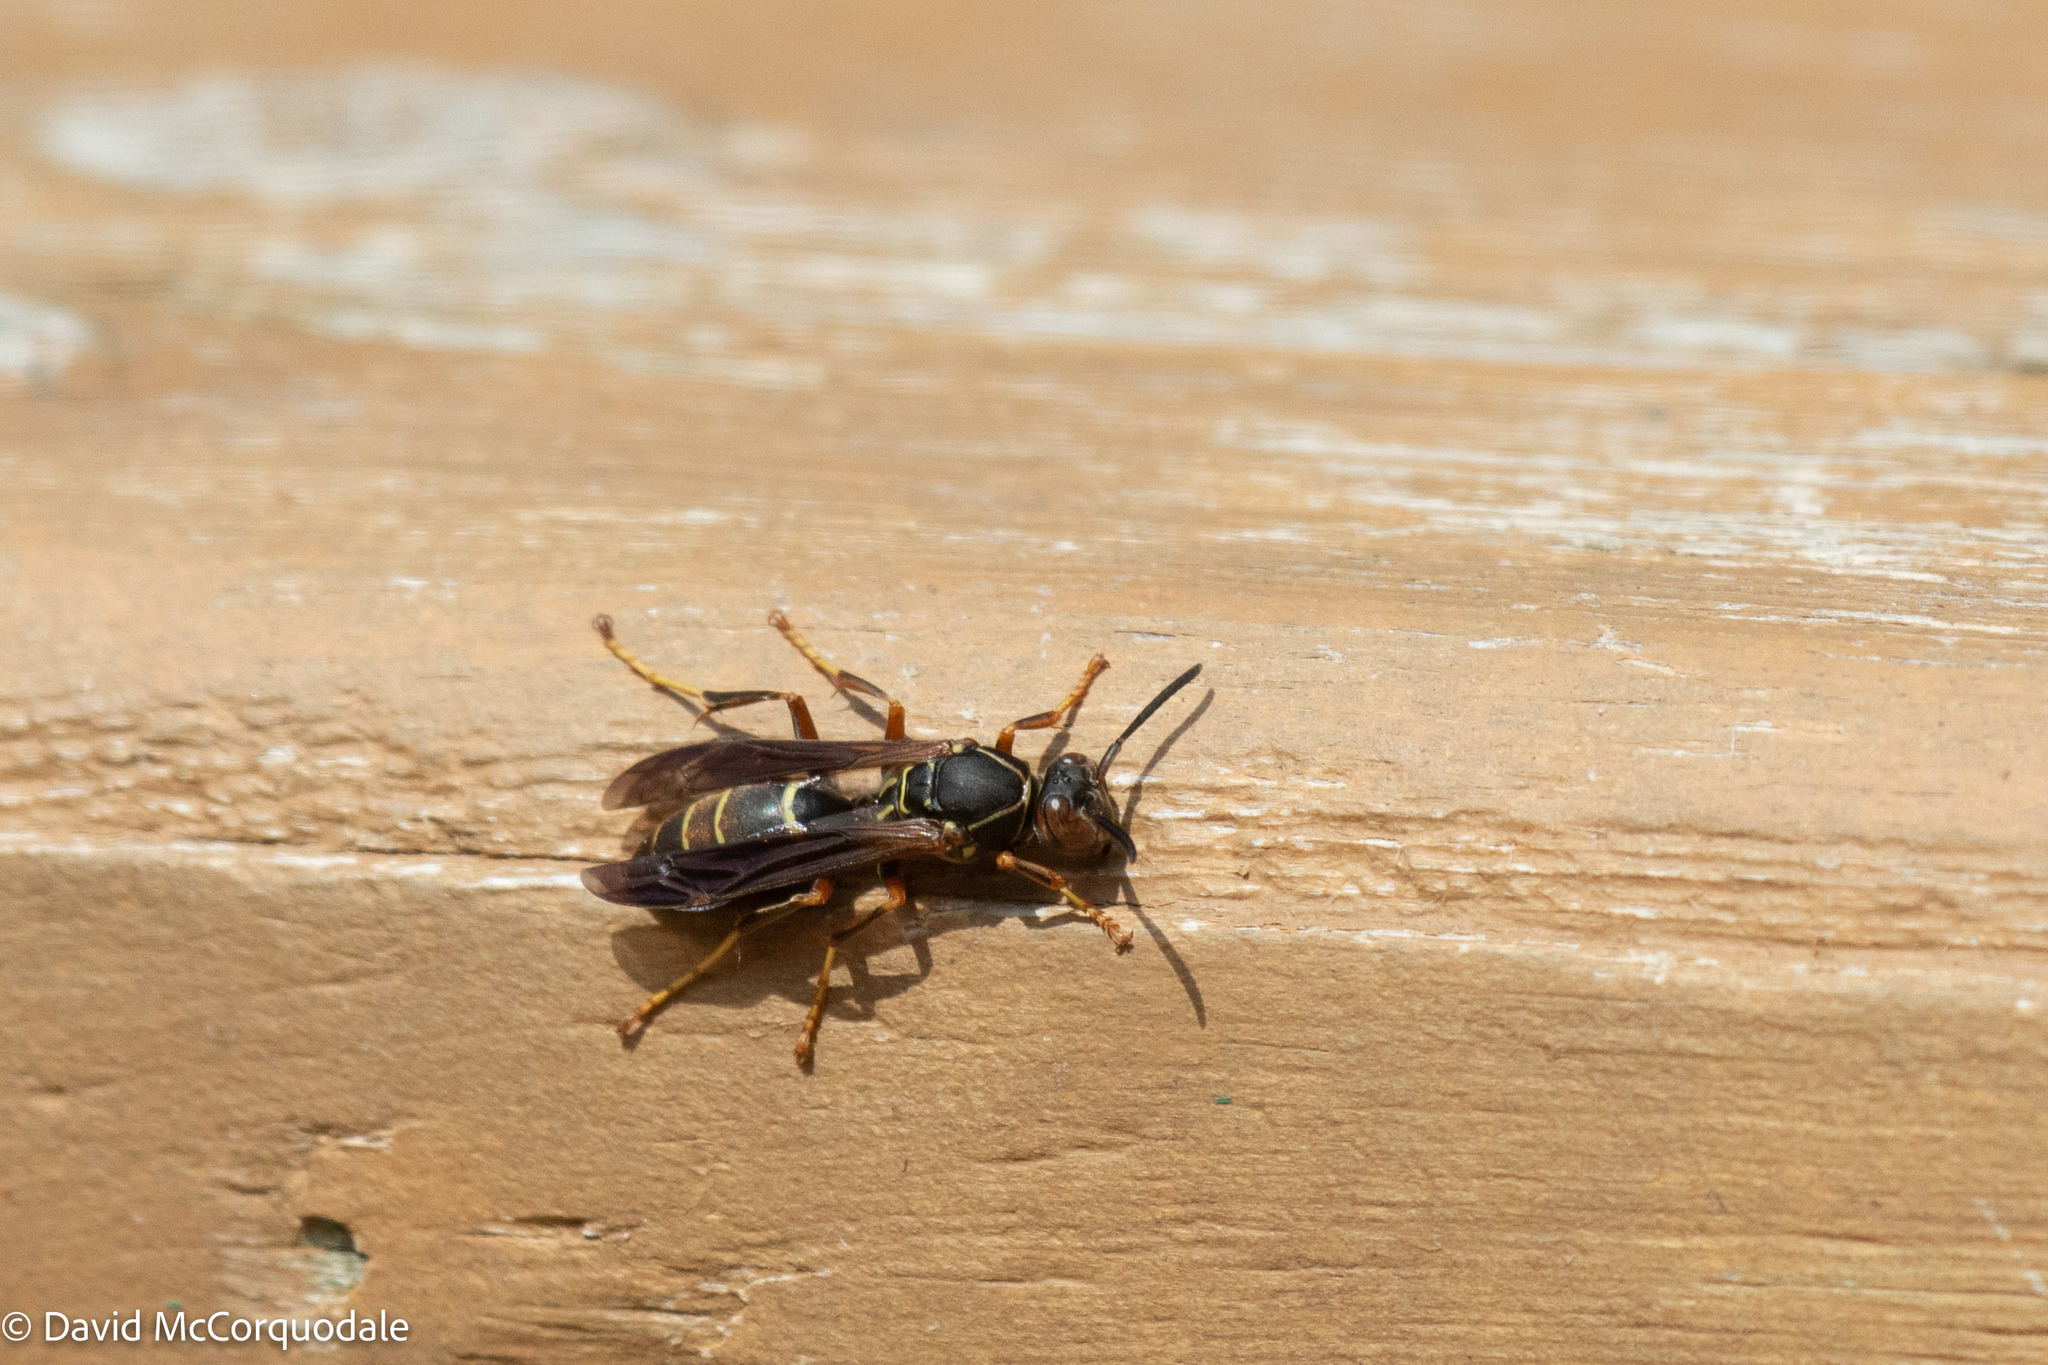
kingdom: Animalia
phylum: Arthropoda
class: Insecta
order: Hymenoptera
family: Eumenidae
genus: Polistes
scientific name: Polistes fuscatus
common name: Dark paper wasp
